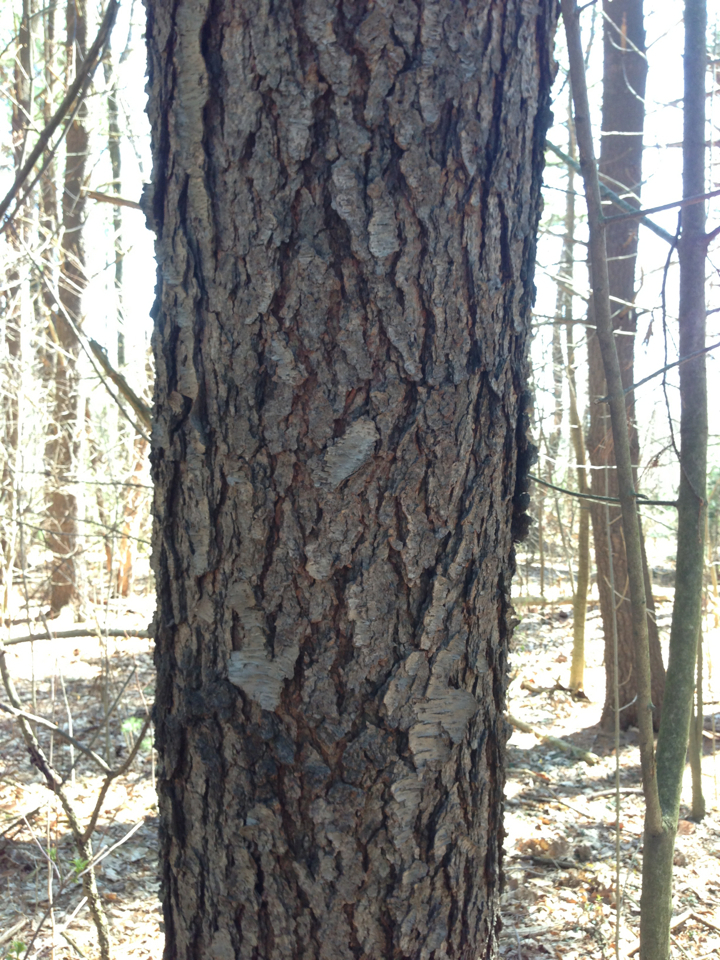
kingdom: Plantae
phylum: Tracheophyta
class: Magnoliopsida
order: Rosales
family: Rosaceae
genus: Prunus
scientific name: Prunus serotina
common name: Black cherry
